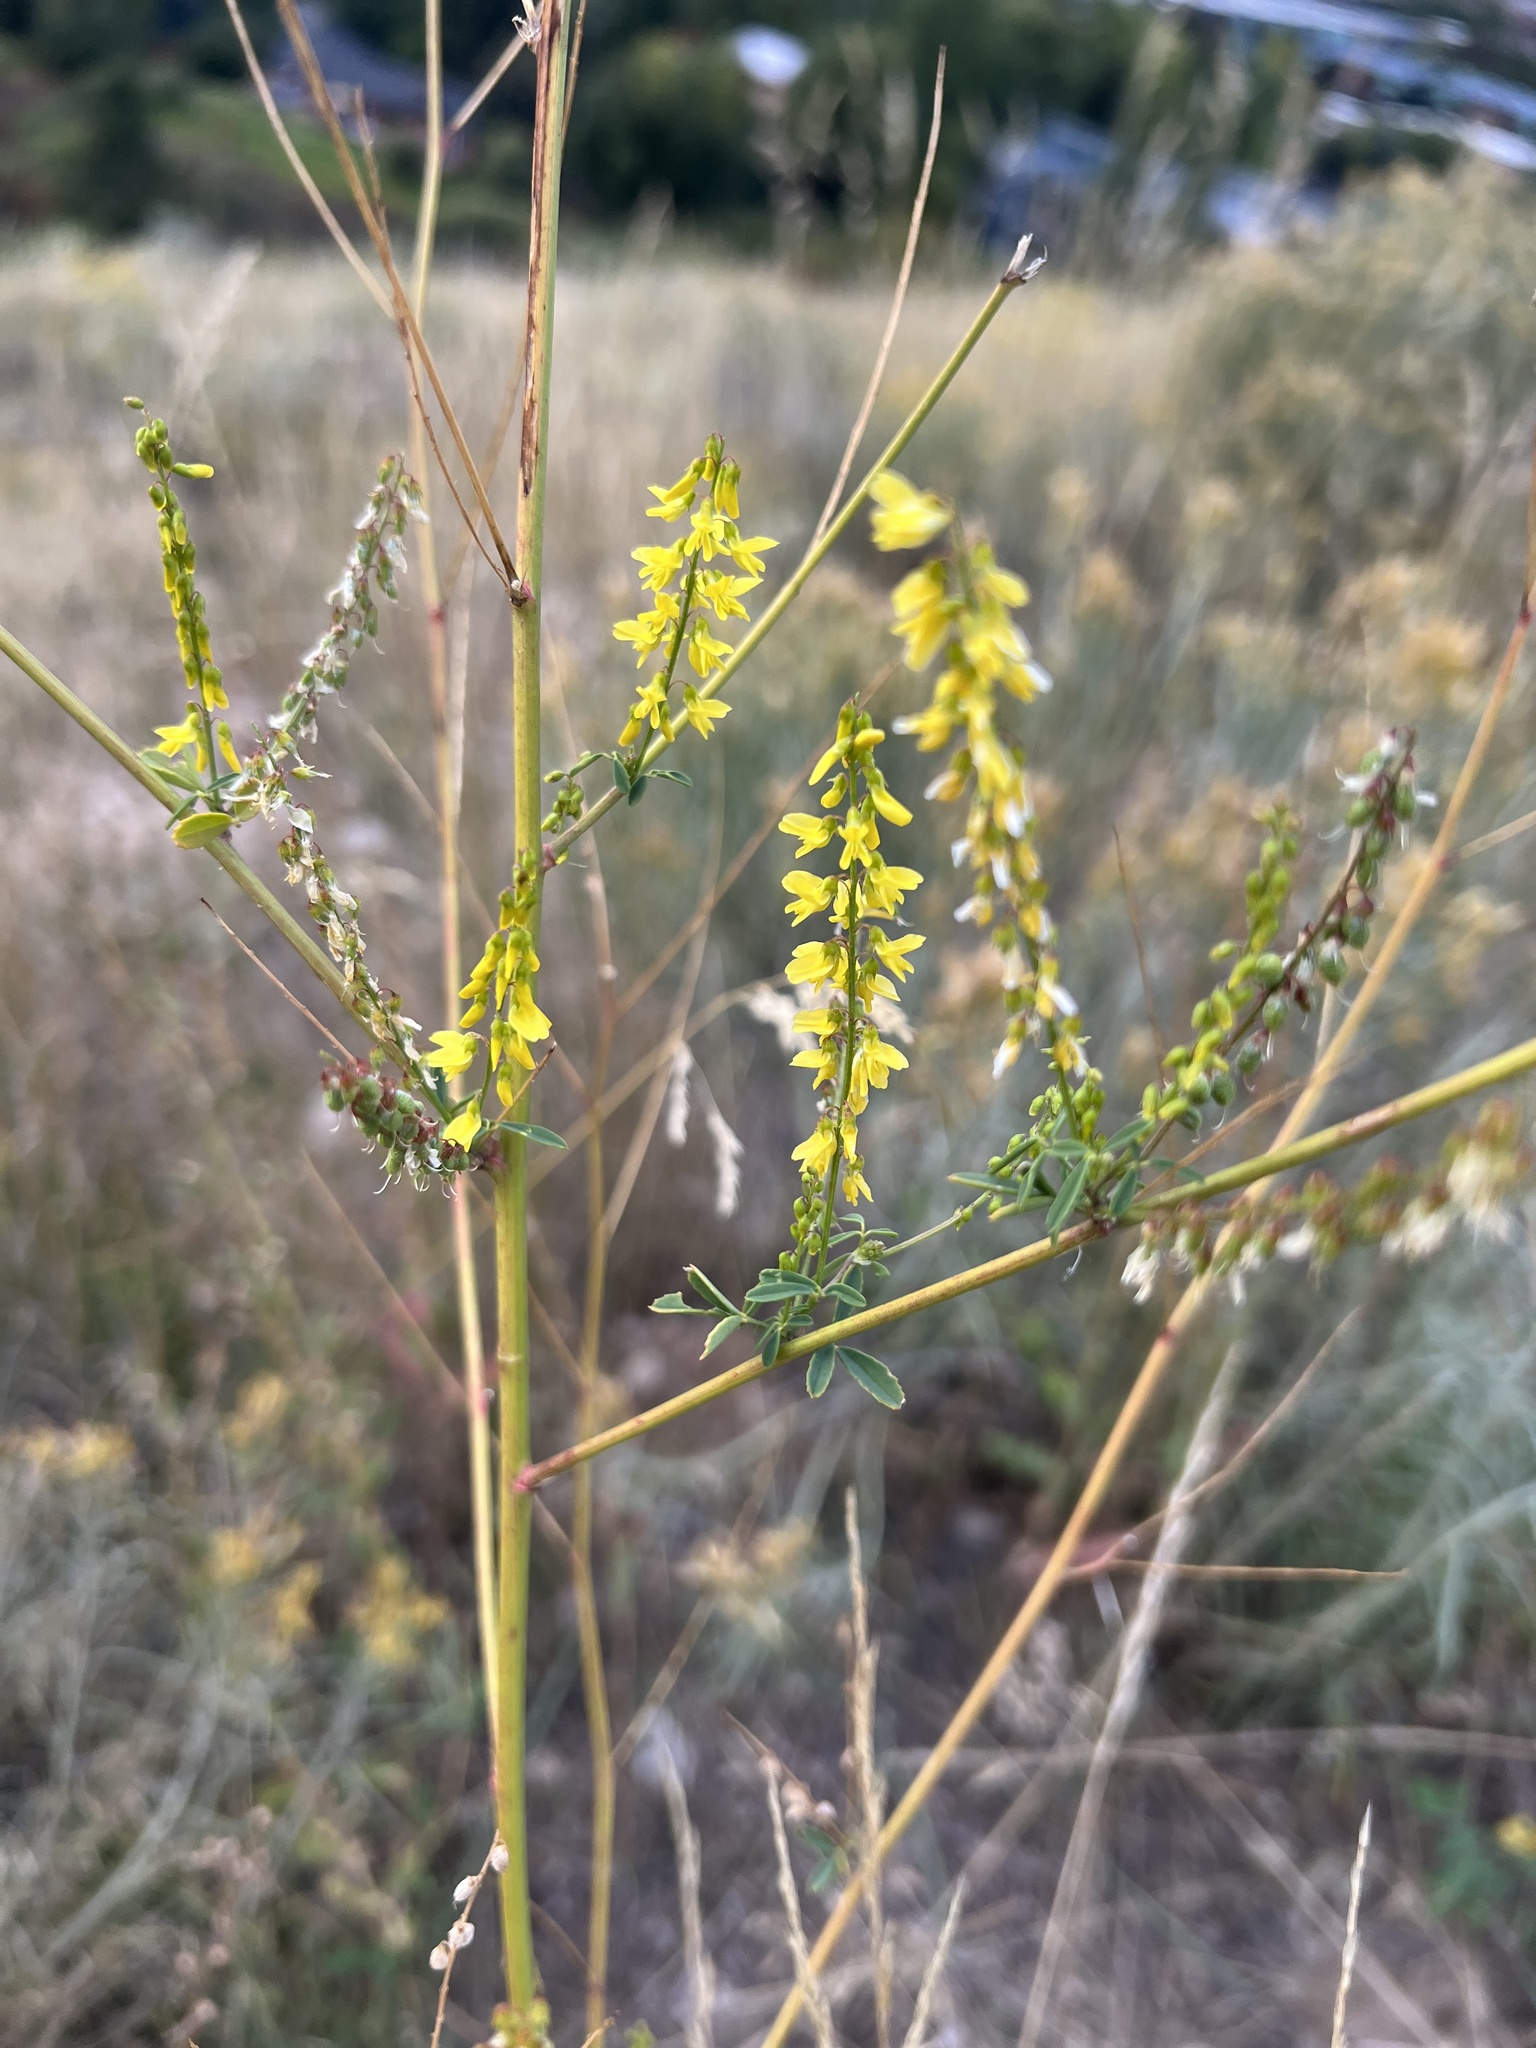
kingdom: Plantae
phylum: Tracheophyta
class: Magnoliopsida
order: Fabales
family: Fabaceae
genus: Melilotus
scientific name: Melilotus officinalis
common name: Sweetclover
